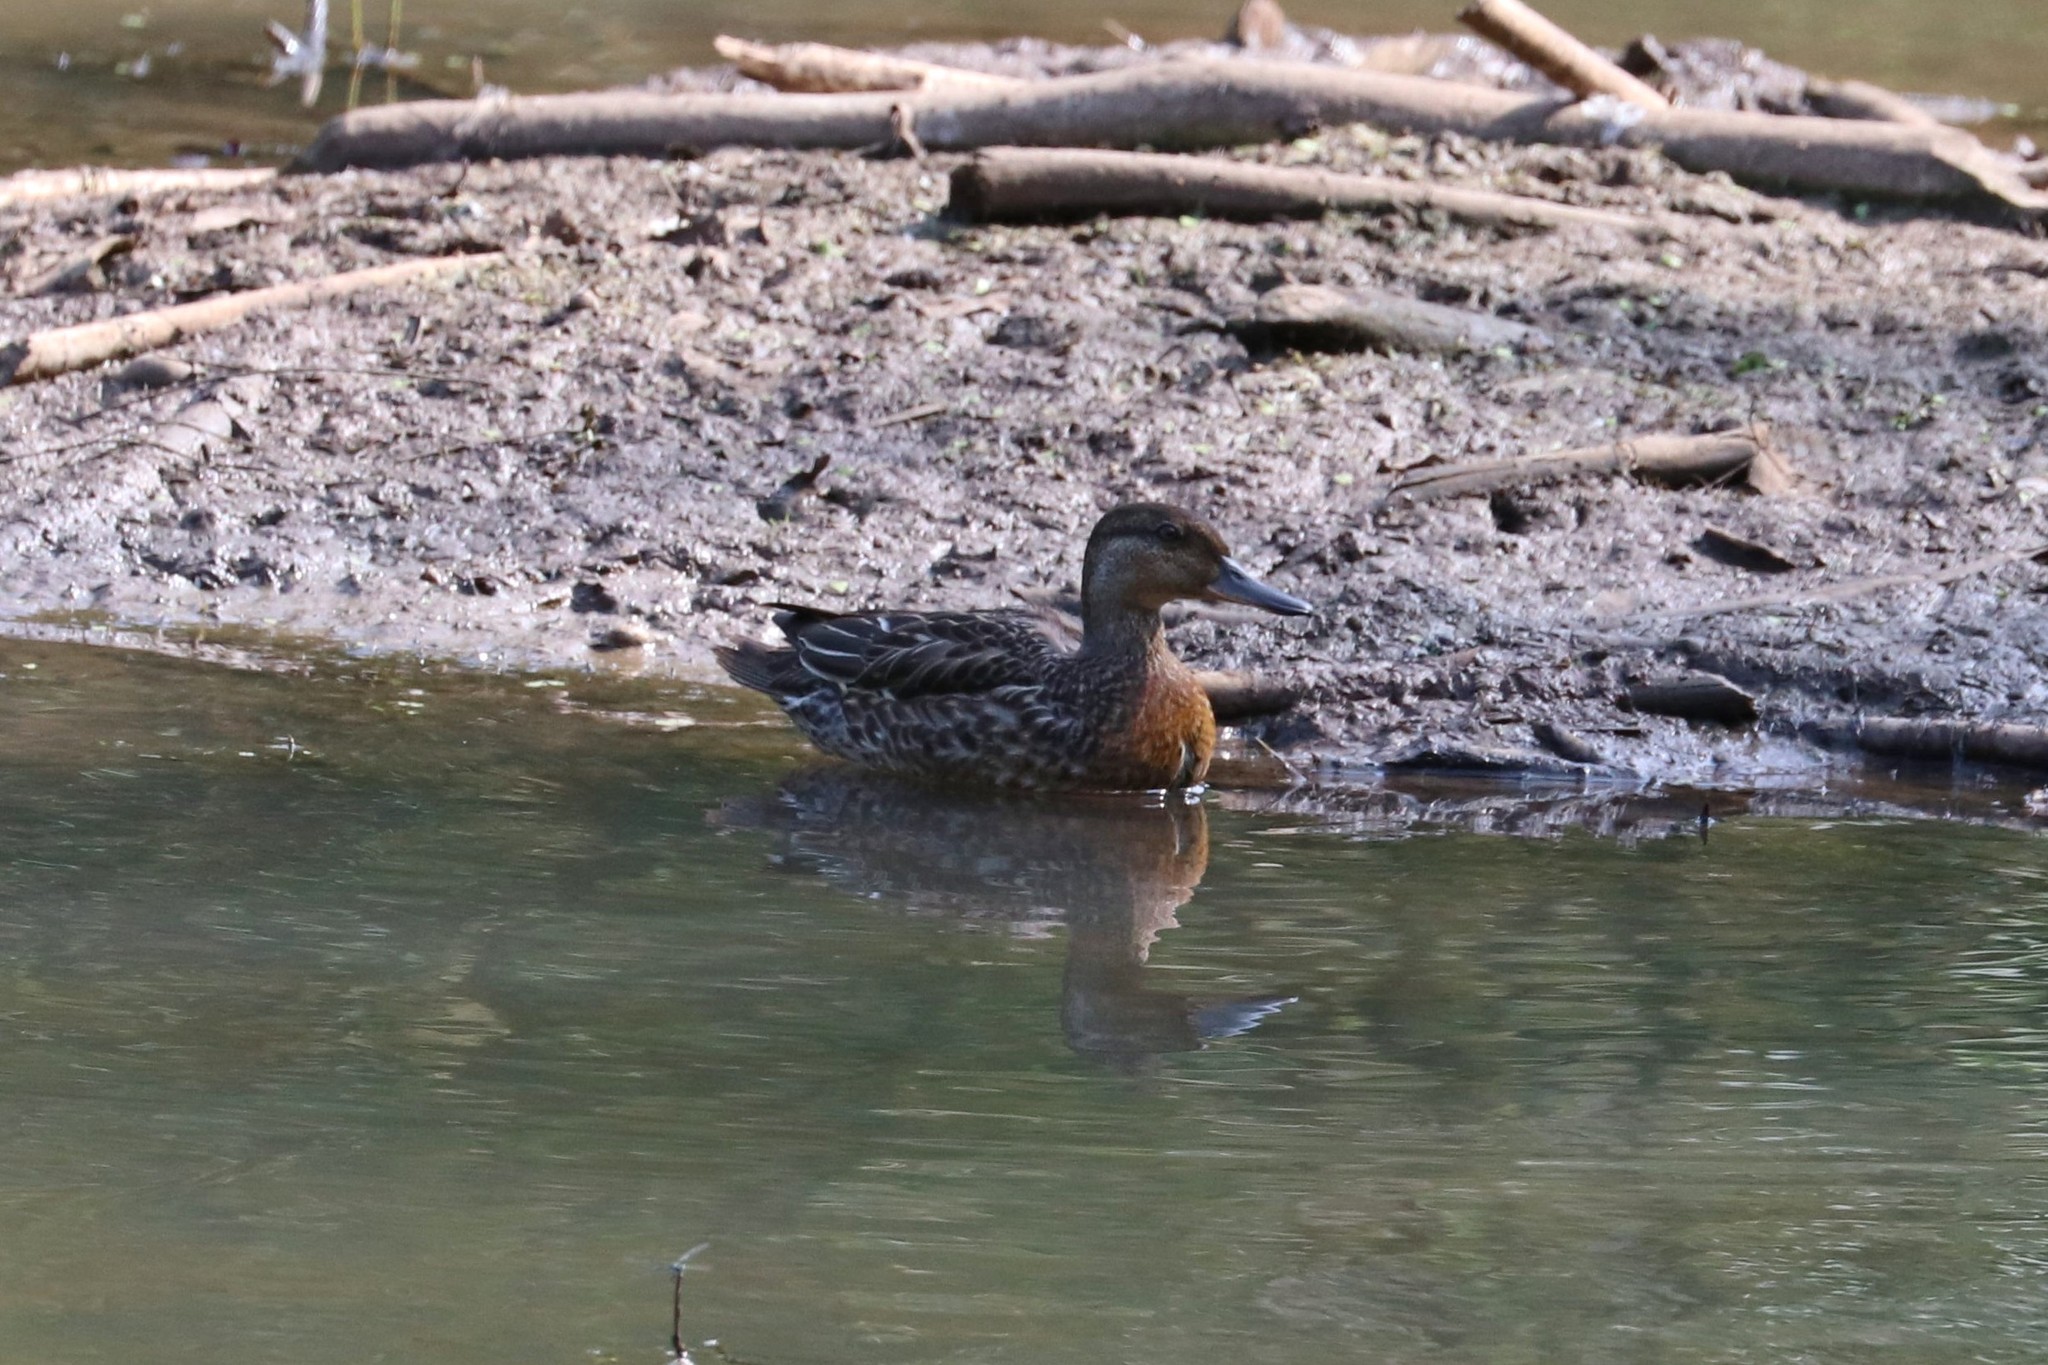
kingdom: Animalia
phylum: Chordata
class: Aves
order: Anseriformes
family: Anatidae
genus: Anas
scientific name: Anas crecca
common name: Eurasian teal
